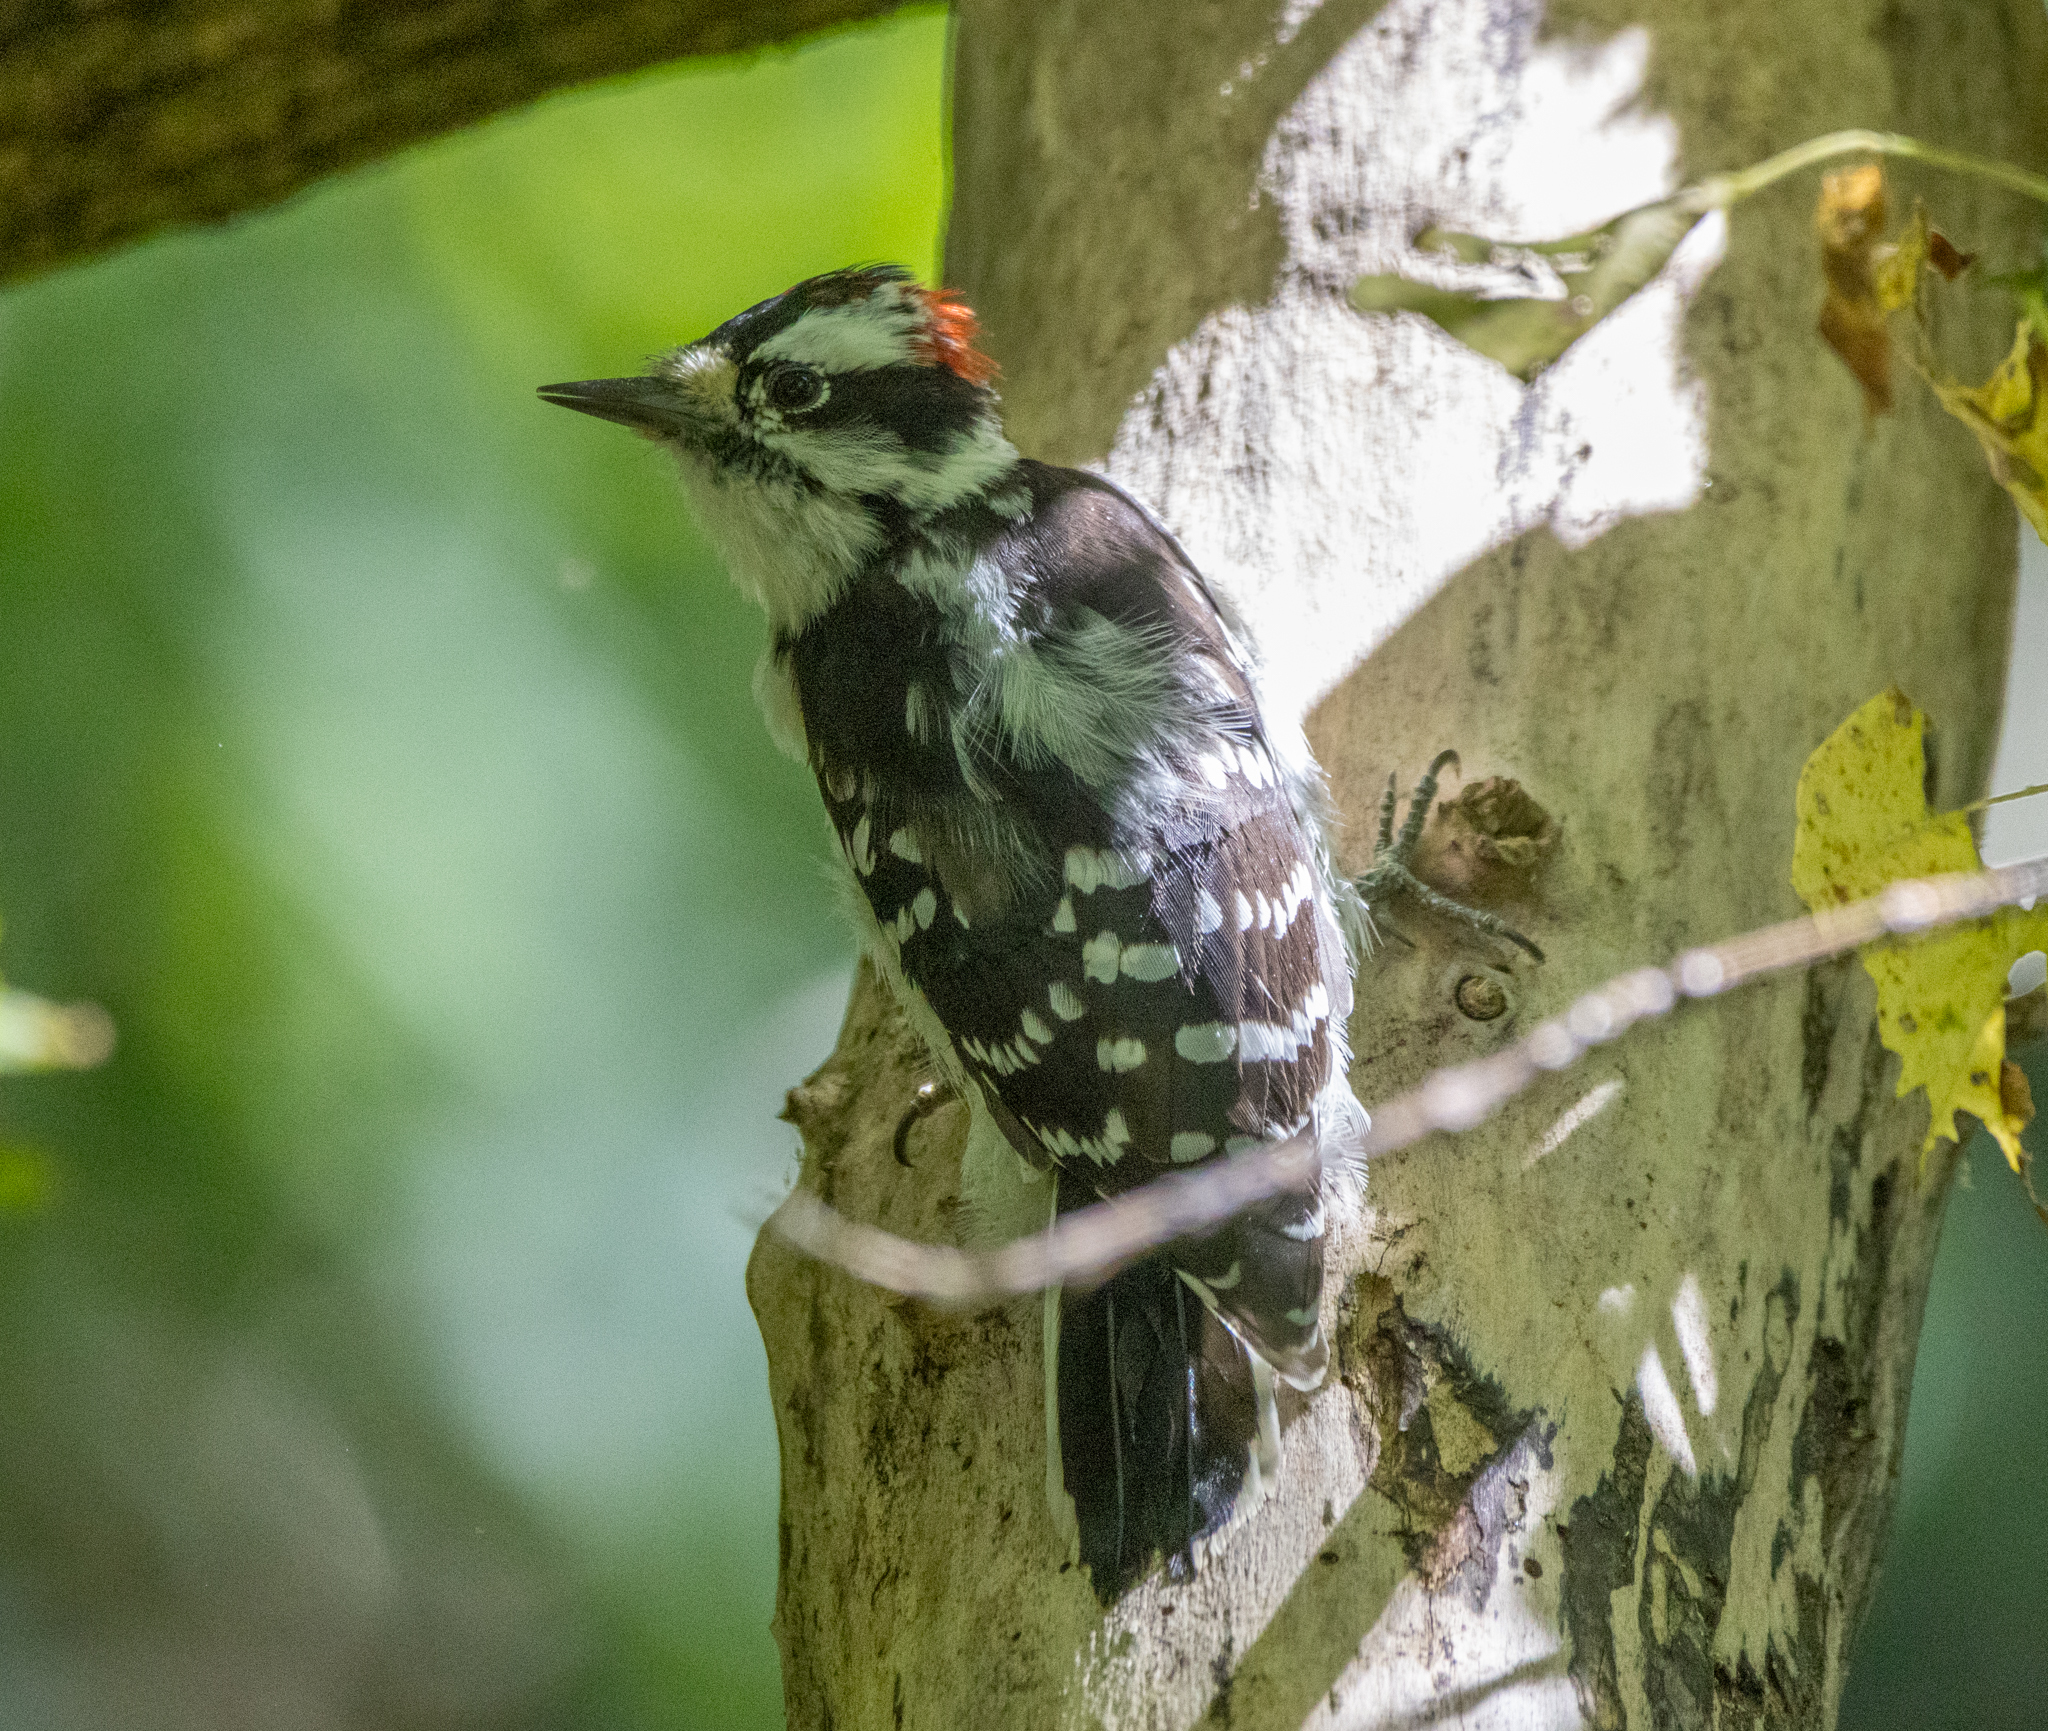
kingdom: Animalia
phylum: Chordata
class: Aves
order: Piciformes
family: Picidae
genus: Dryobates
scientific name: Dryobates pubescens
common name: Downy woodpecker
